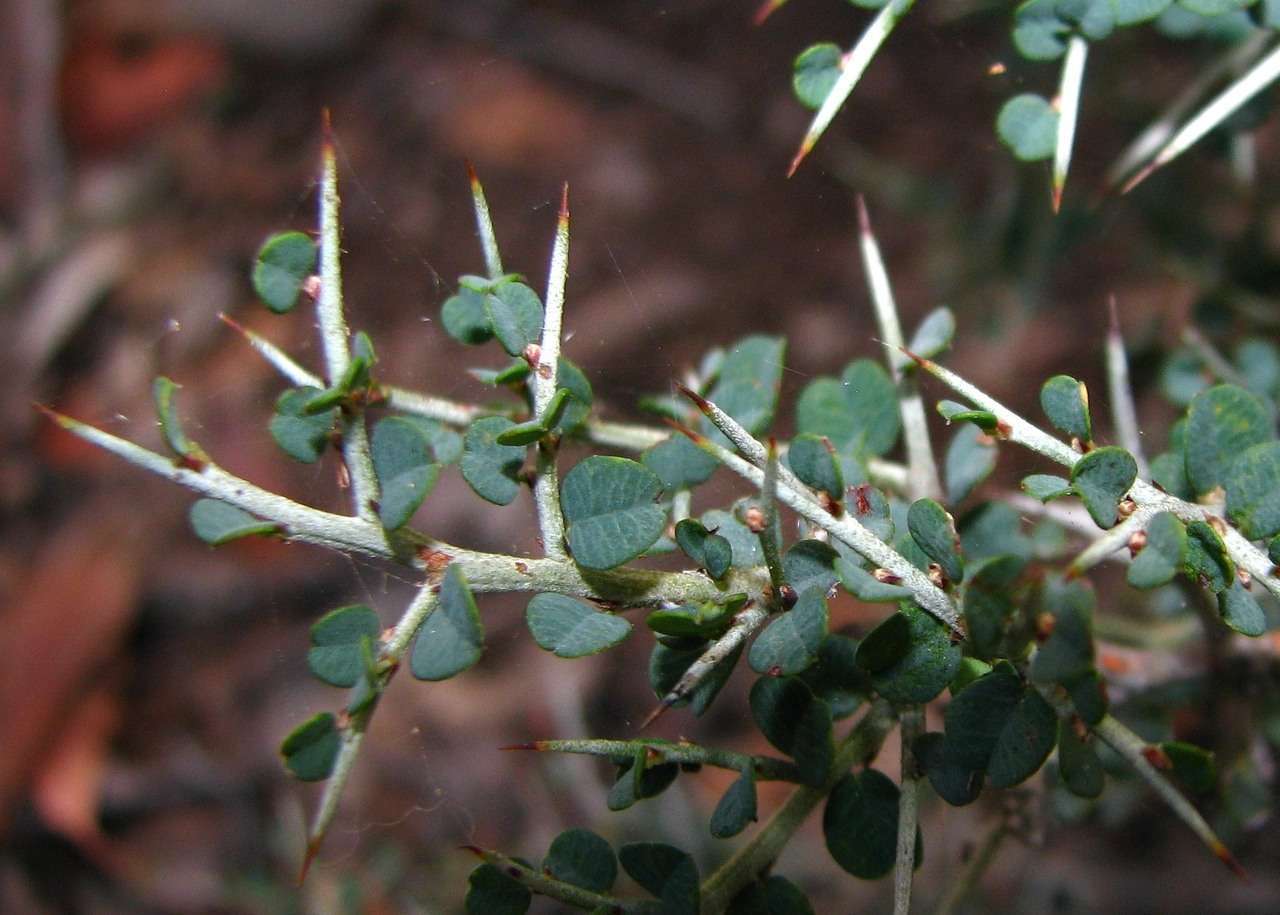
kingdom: Plantae
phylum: Tracheophyta
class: Magnoliopsida
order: Fabales
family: Fabaceae
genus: Bossiaea
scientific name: Bossiaea obcordata
